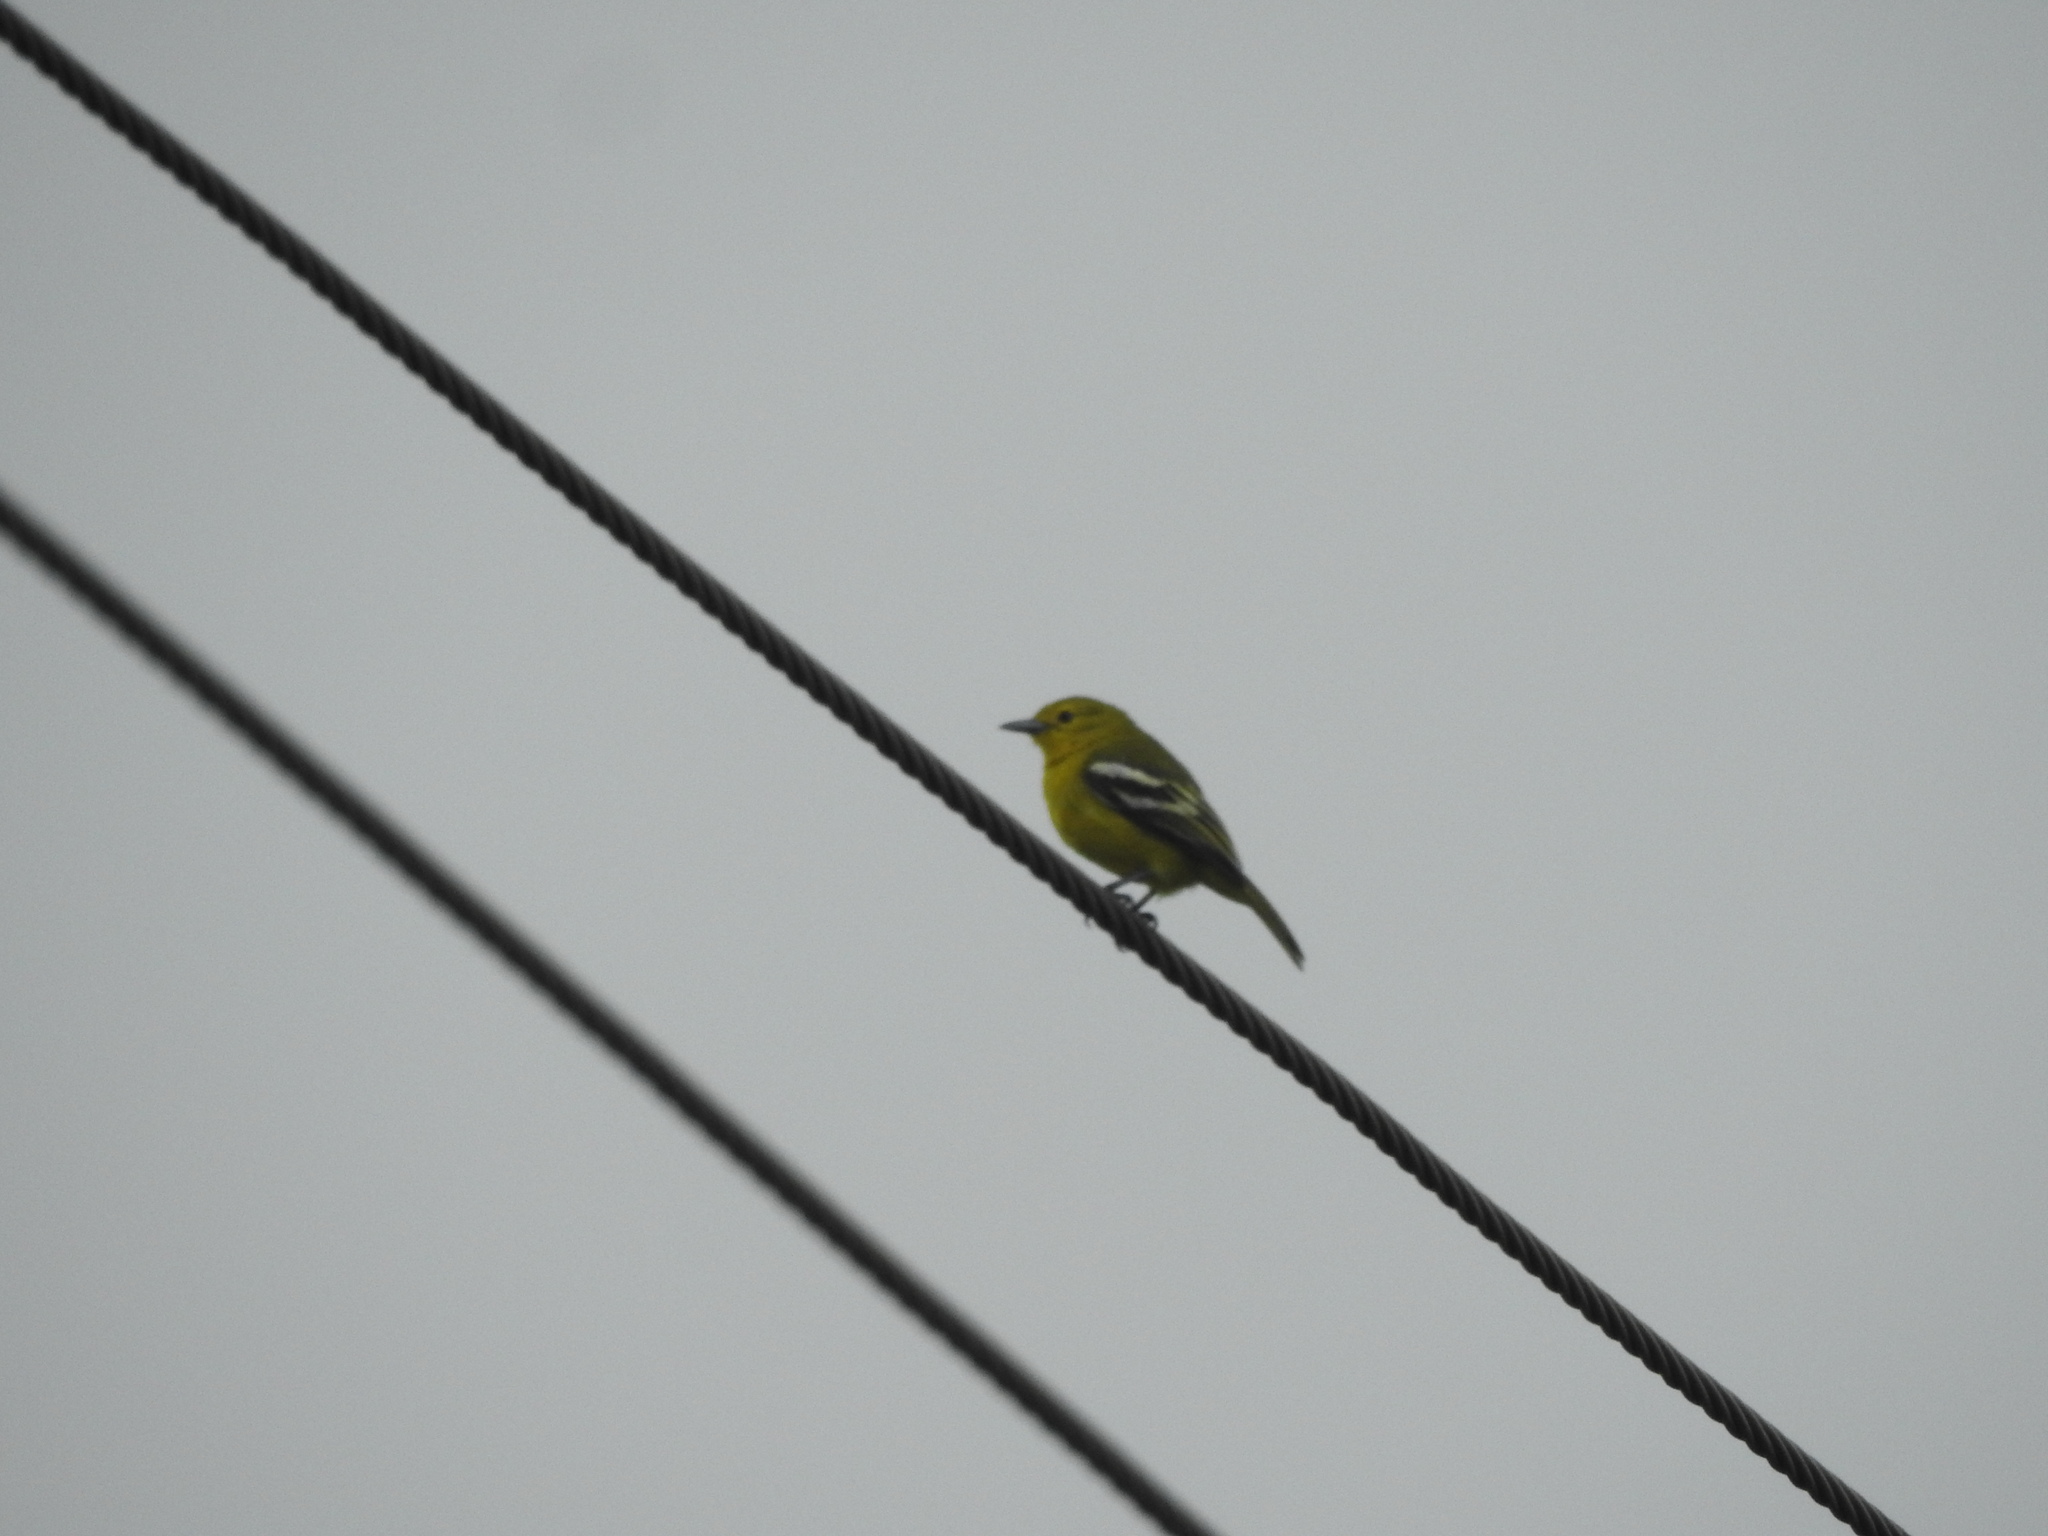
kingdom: Animalia
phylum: Chordata
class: Aves
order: Passeriformes
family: Aegithinidae
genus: Aegithina
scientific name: Aegithina tiphia
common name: Common iora
